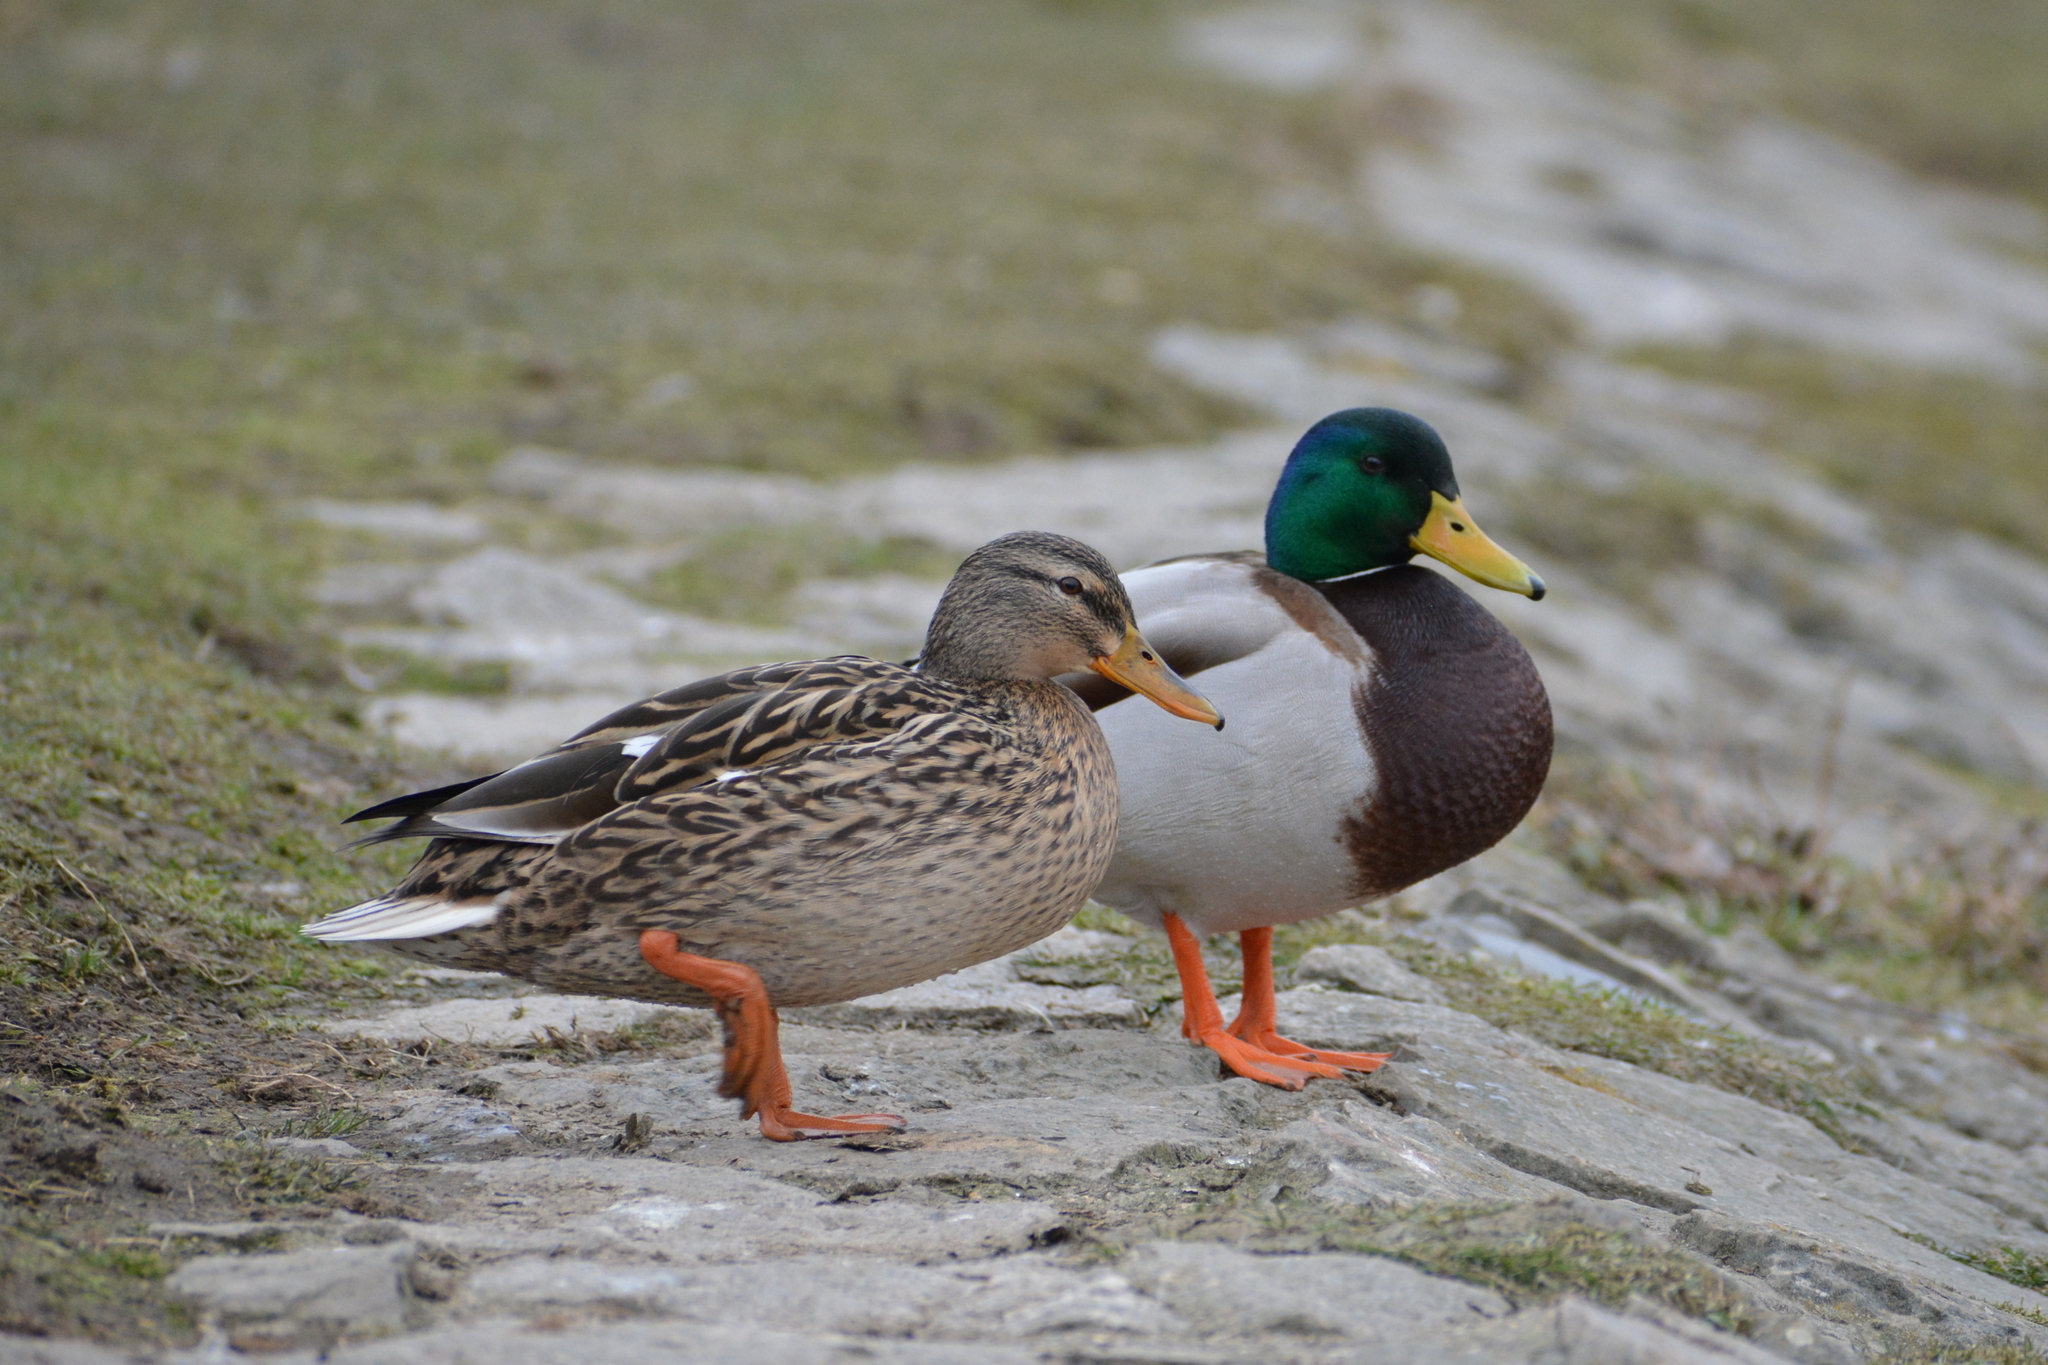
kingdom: Animalia
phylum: Chordata
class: Aves
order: Anseriformes
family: Anatidae
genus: Anas
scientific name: Anas platyrhynchos
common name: Mallard
